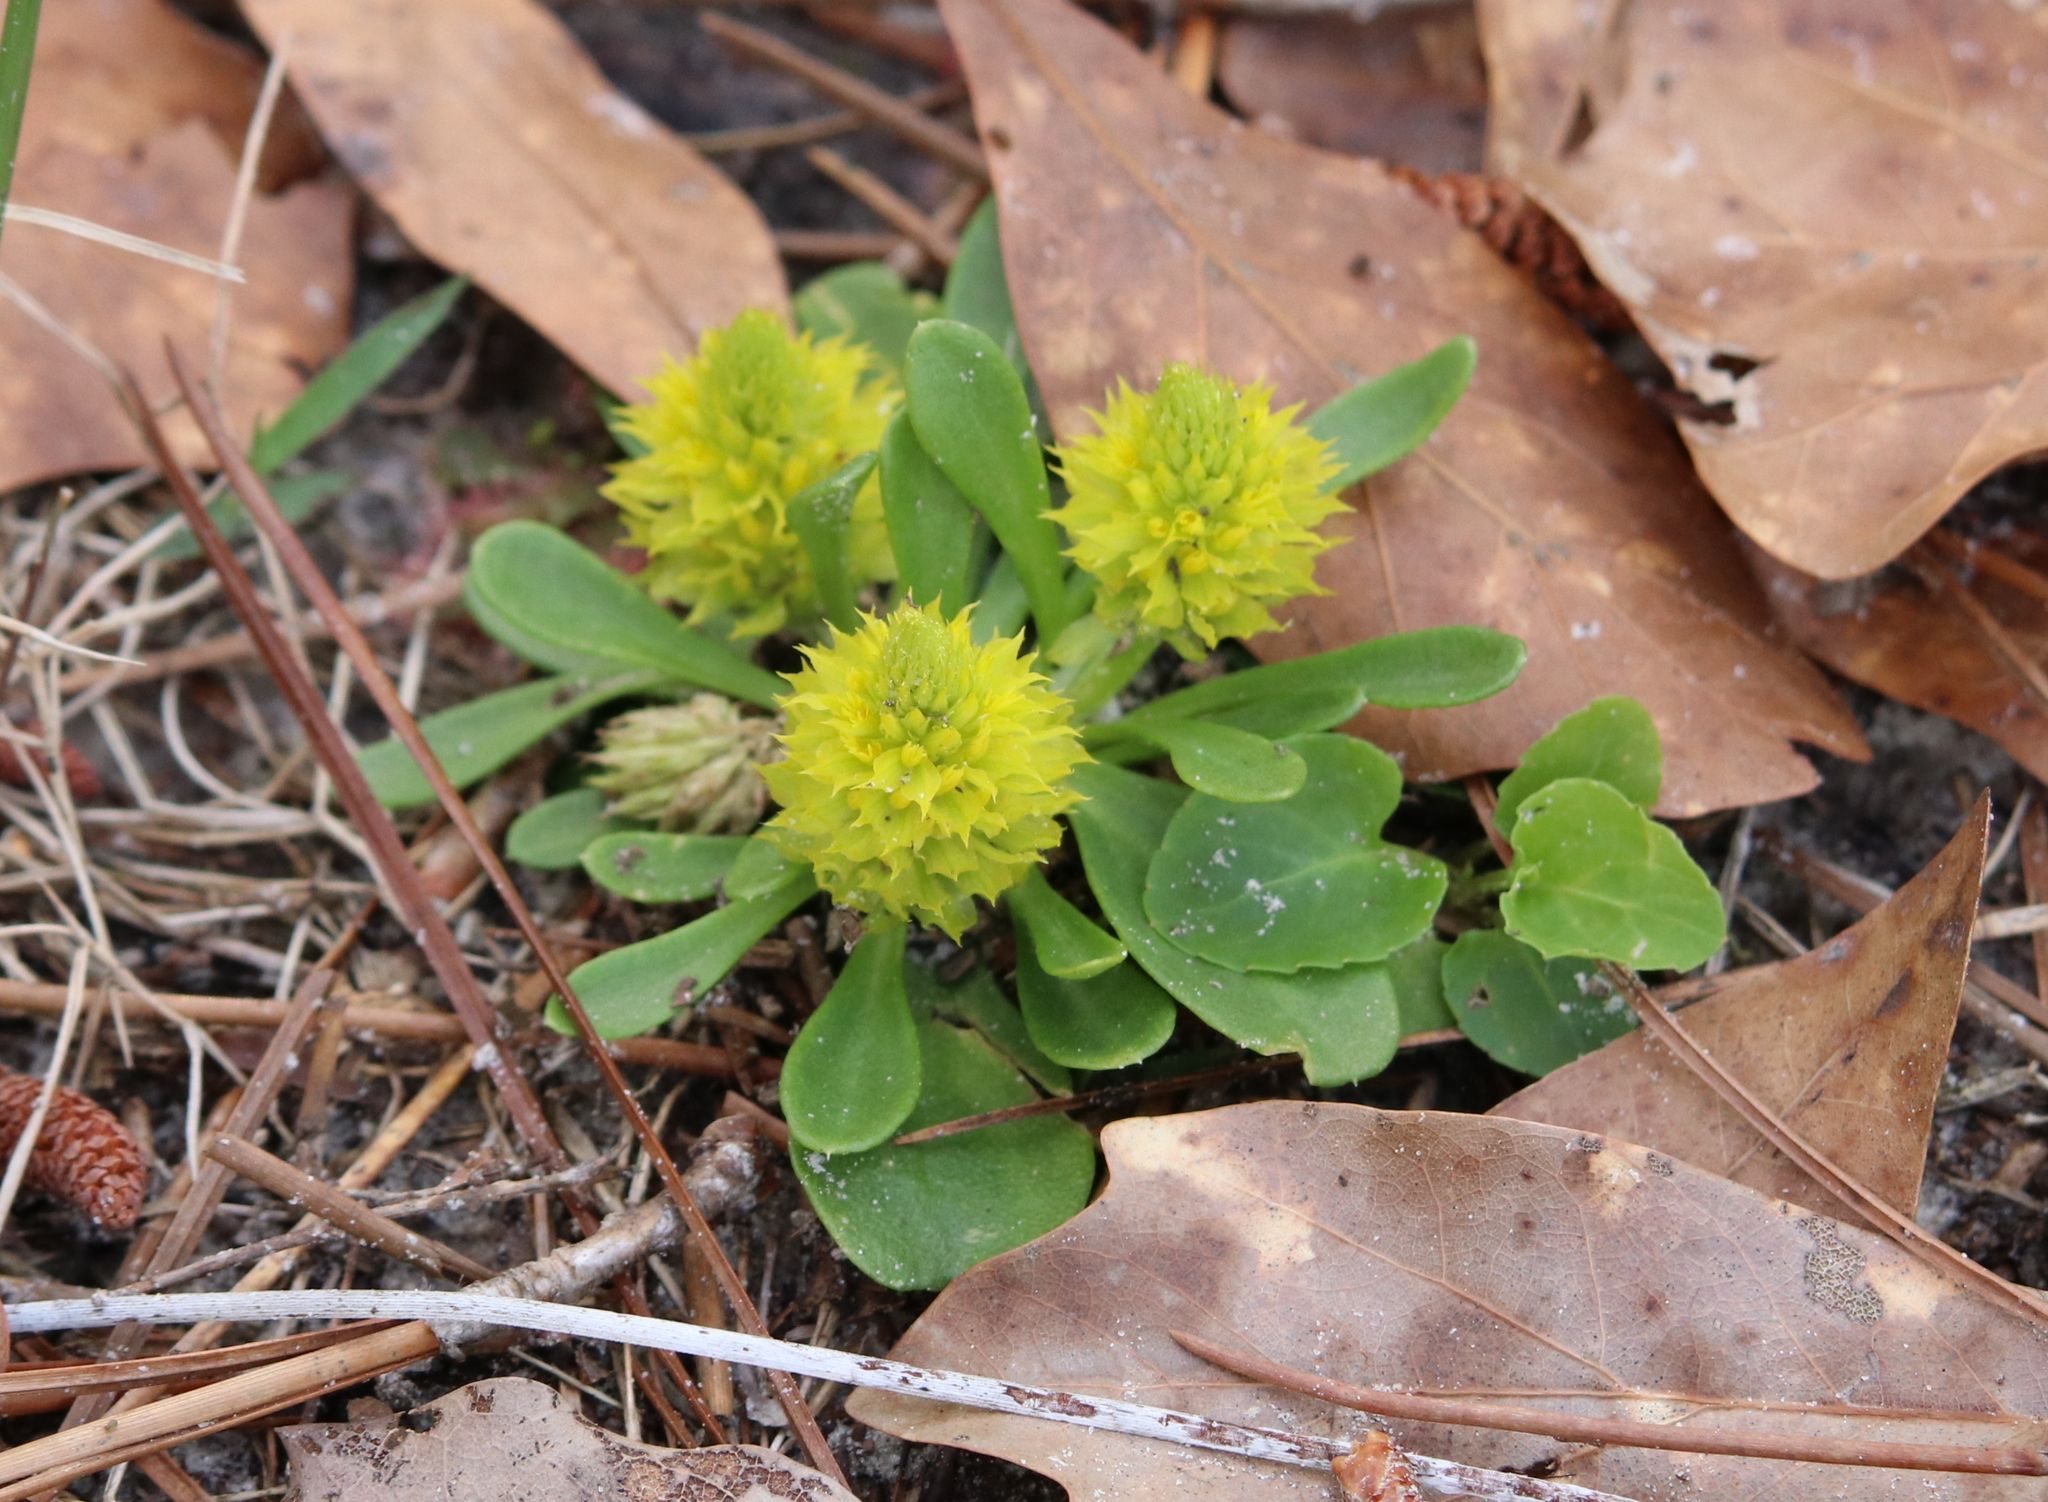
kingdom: Plantae
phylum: Tracheophyta
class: Magnoliopsida
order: Fabales
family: Polygalaceae
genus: Polygala
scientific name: Polygala nana
